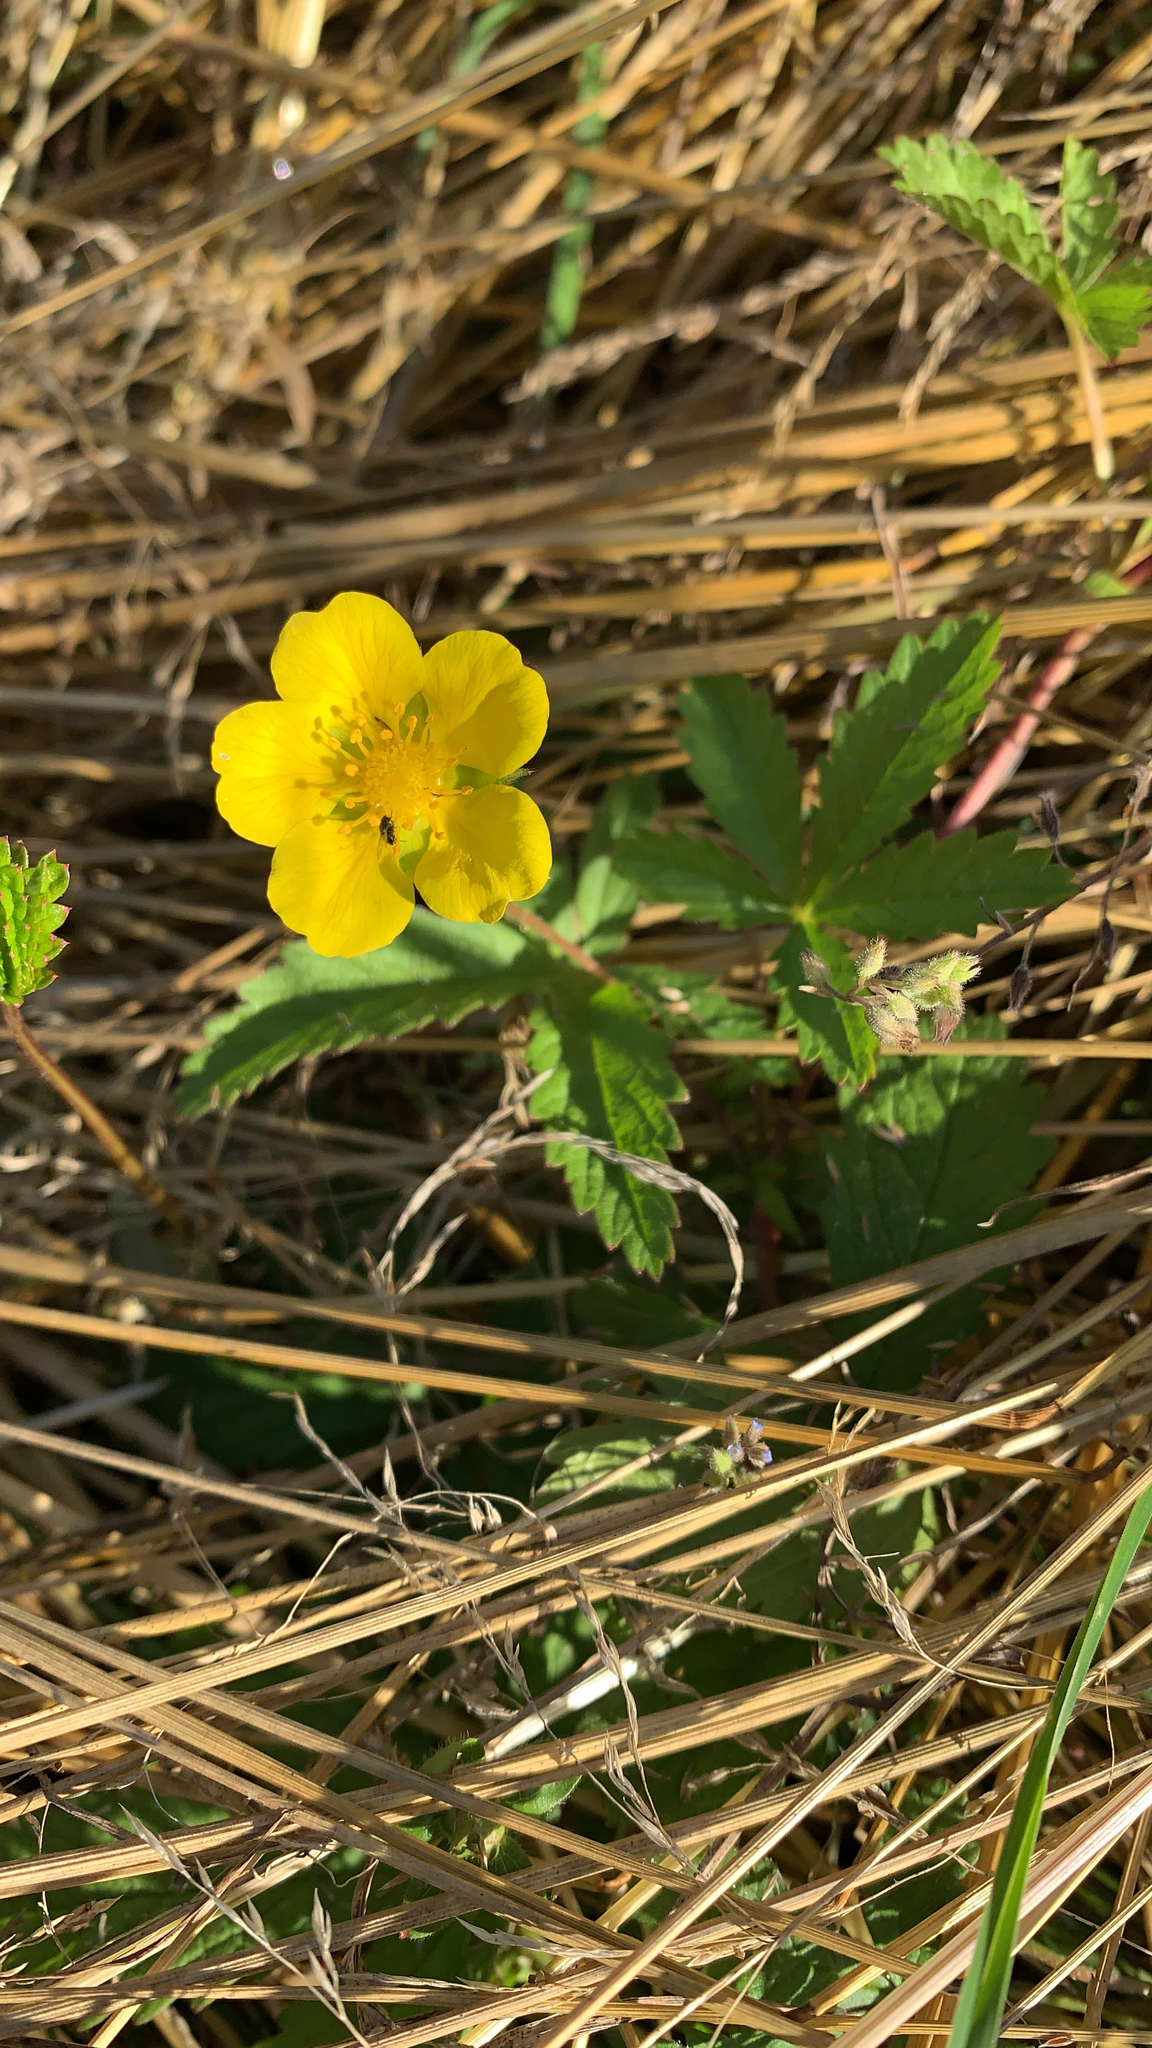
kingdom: Plantae
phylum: Tracheophyta
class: Magnoliopsida
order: Rosales
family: Rosaceae
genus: Potentilla
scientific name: Potentilla reptans
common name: Creeping cinquefoil
